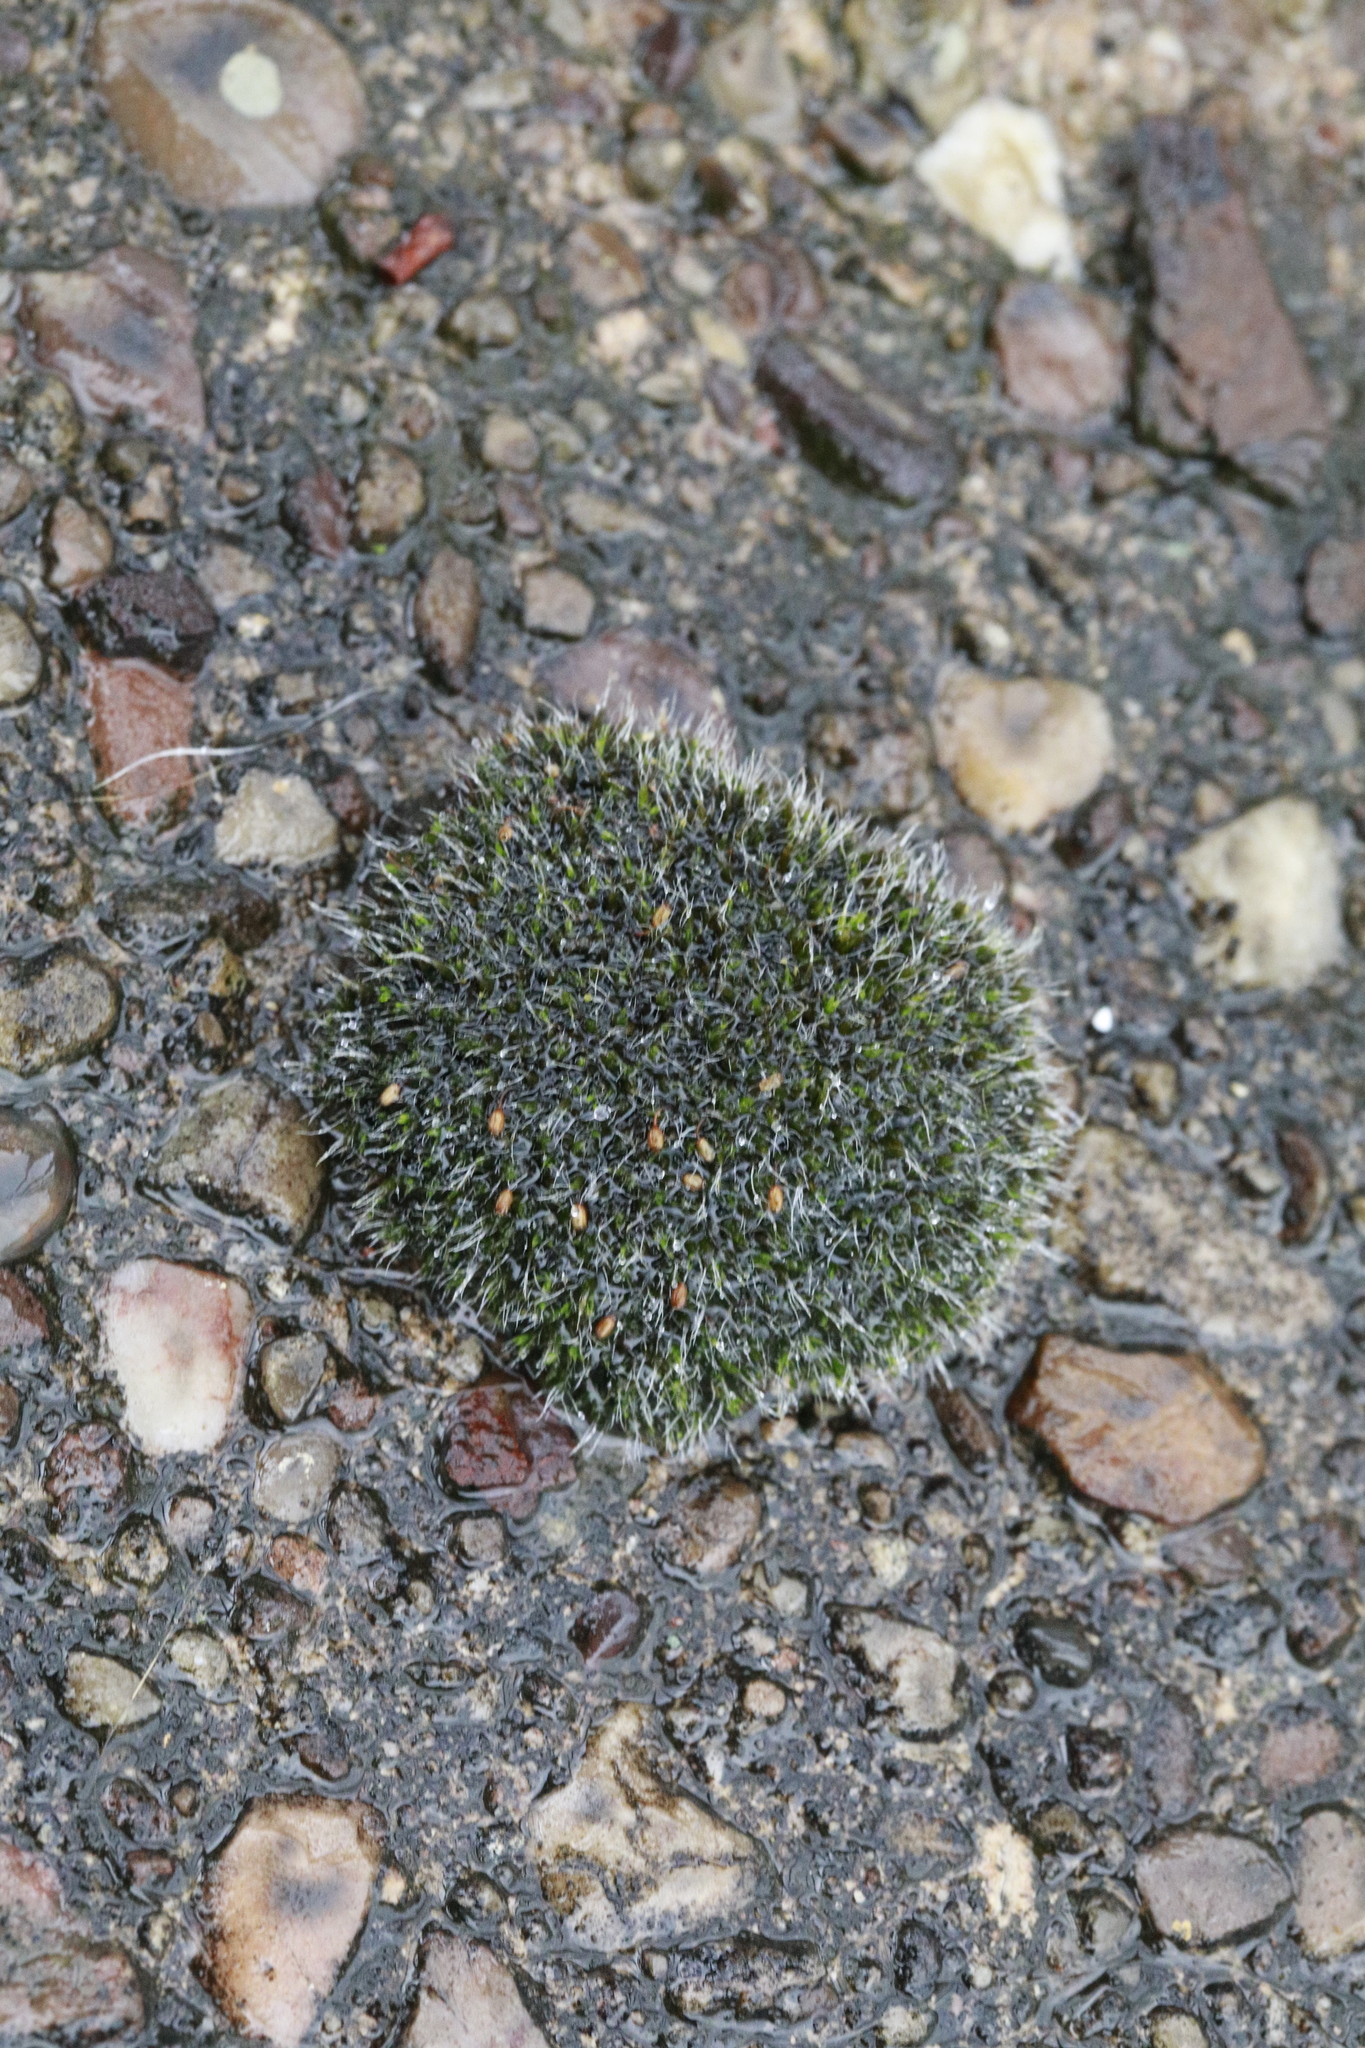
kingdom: Plantae
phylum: Bryophyta
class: Bryopsida
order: Grimmiales
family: Grimmiaceae
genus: Grimmia
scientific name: Grimmia pulvinata
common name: Grey-cushioned grimmia
